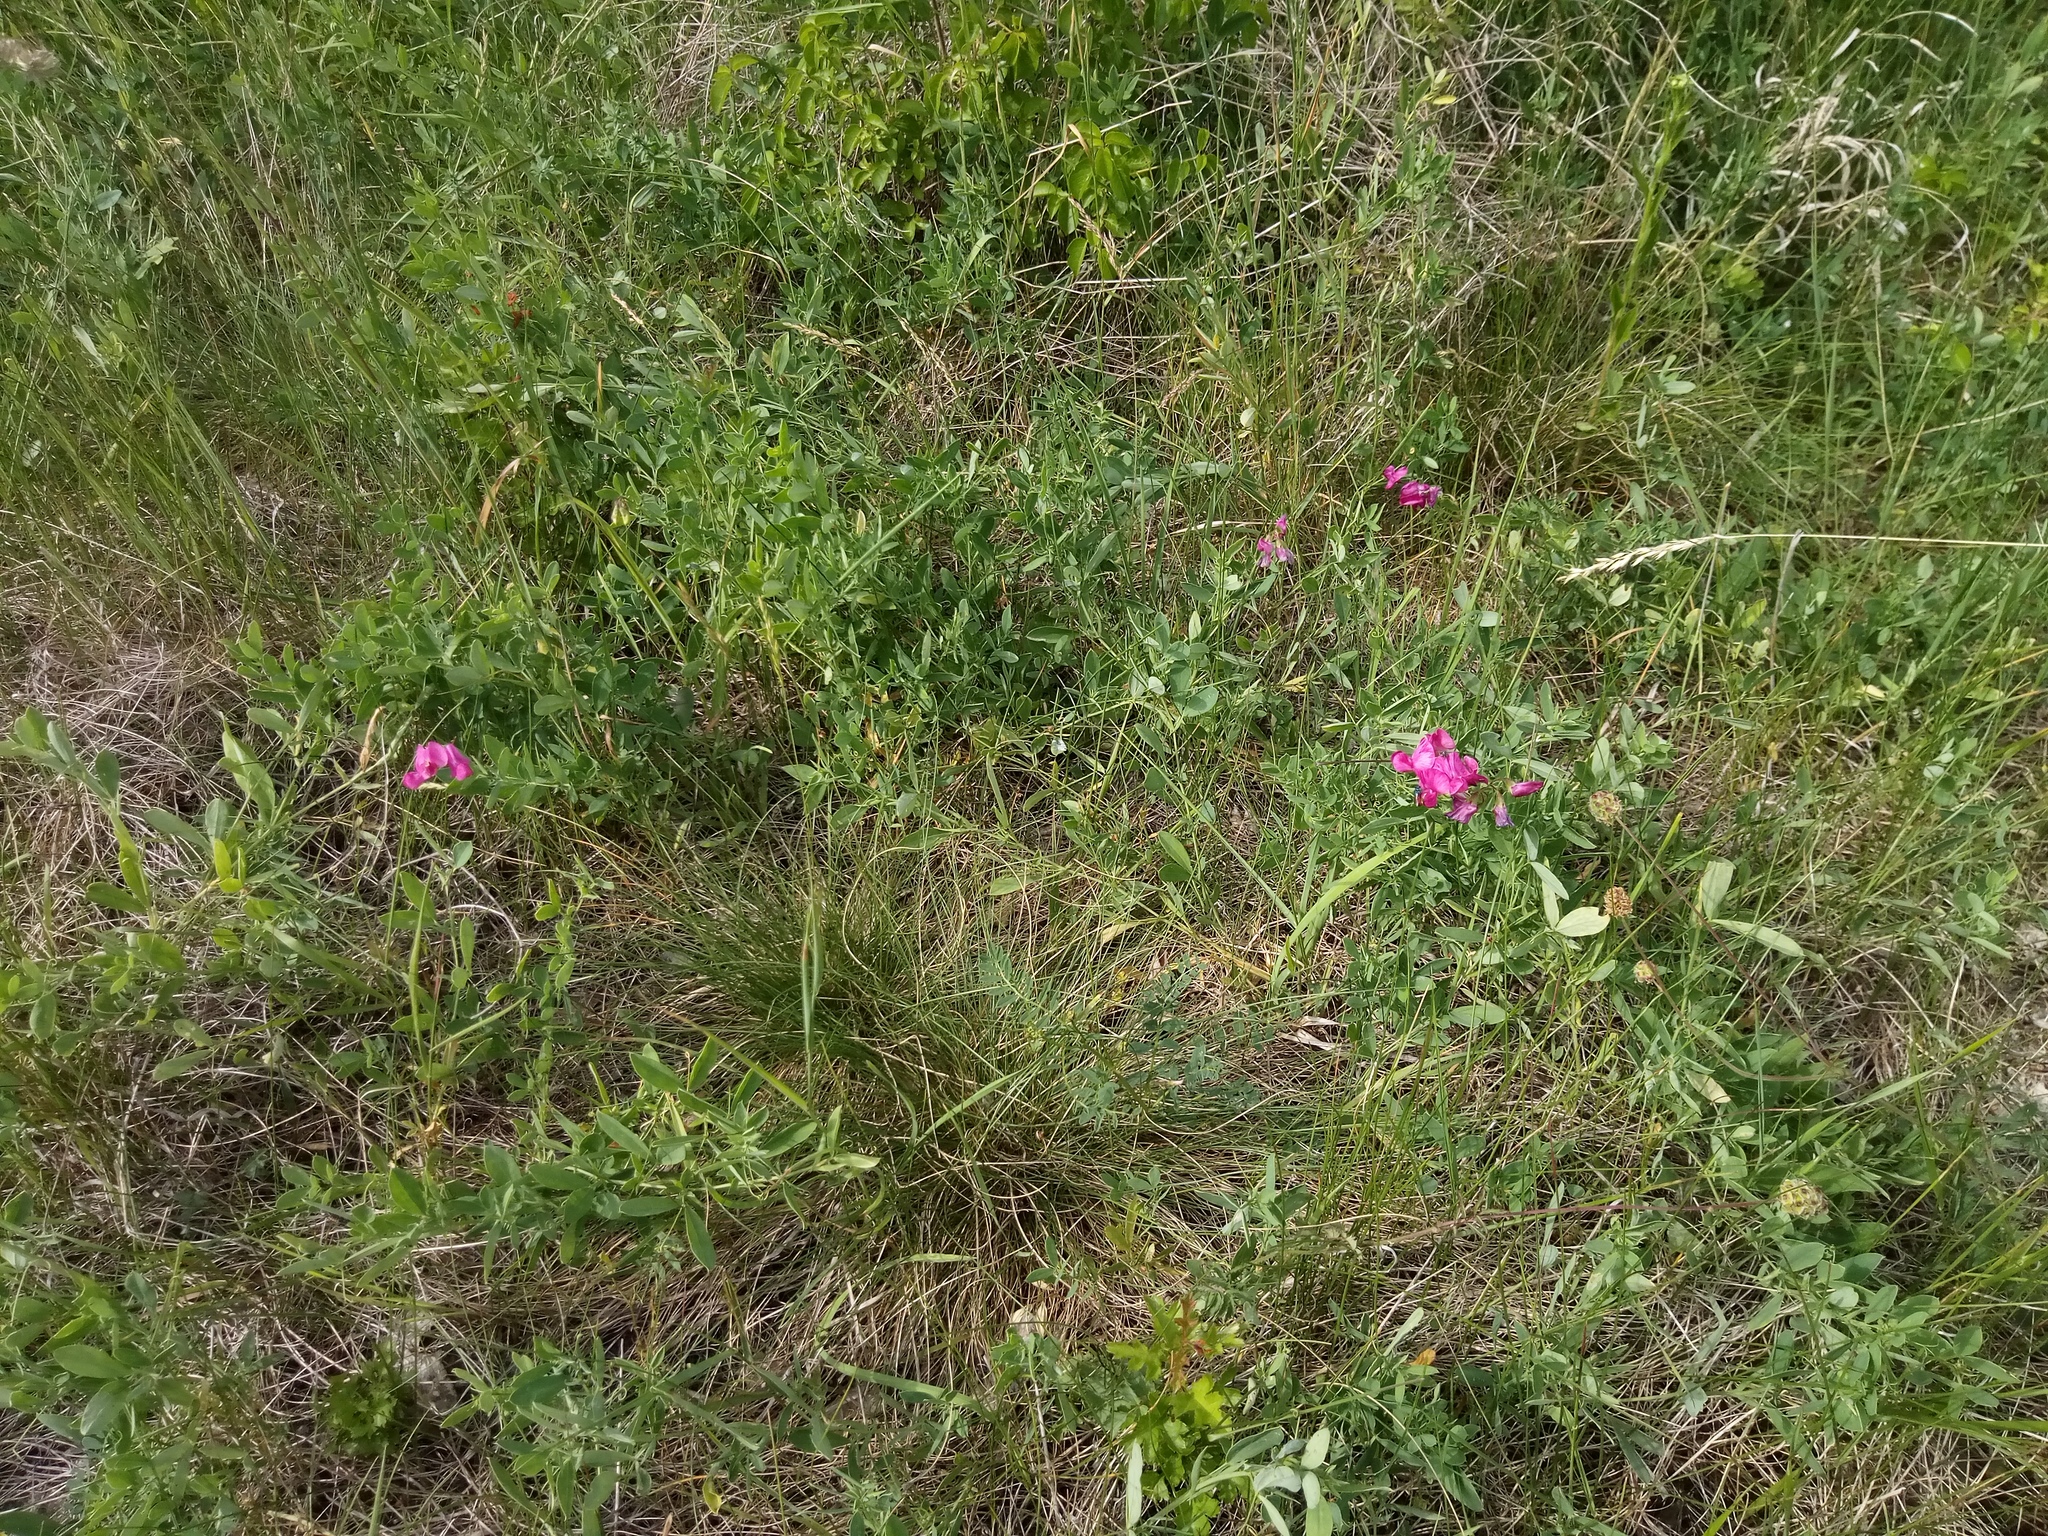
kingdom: Plantae
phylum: Tracheophyta
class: Magnoliopsida
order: Fabales
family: Fabaceae
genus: Lathyrus
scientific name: Lathyrus tuberosus
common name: Tuberous pea
